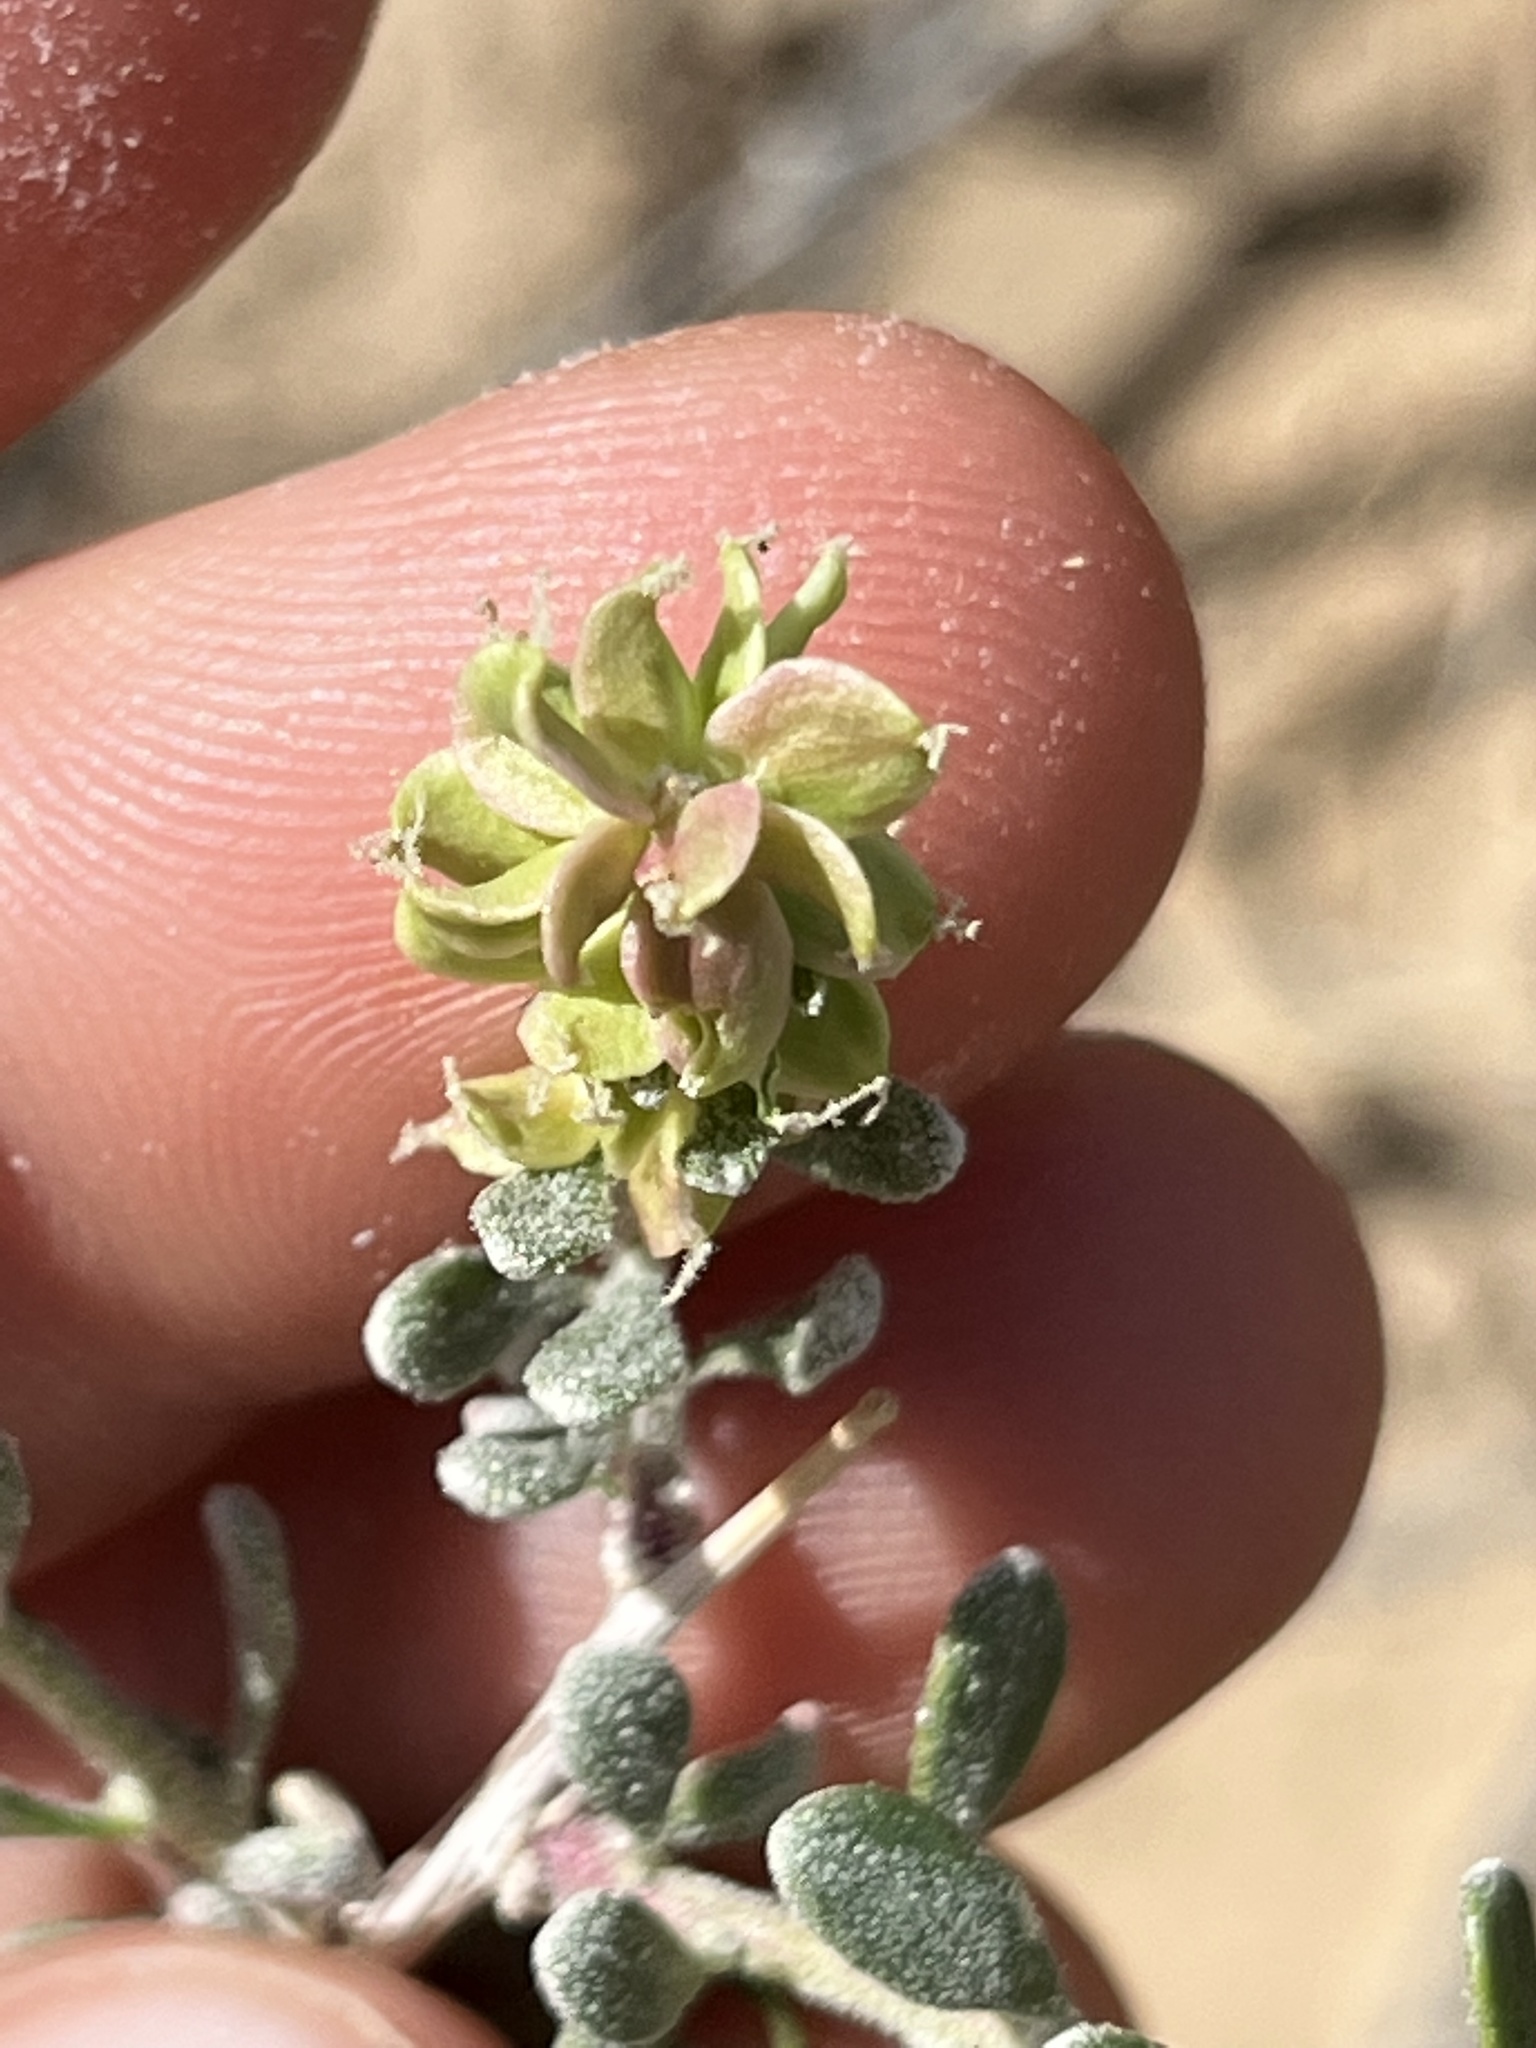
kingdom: Plantae
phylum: Tracheophyta
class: Magnoliopsida
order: Caryophyllales
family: Amaranthaceae
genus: Grayia
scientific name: Grayia spinosa
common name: Spiny hopsage
